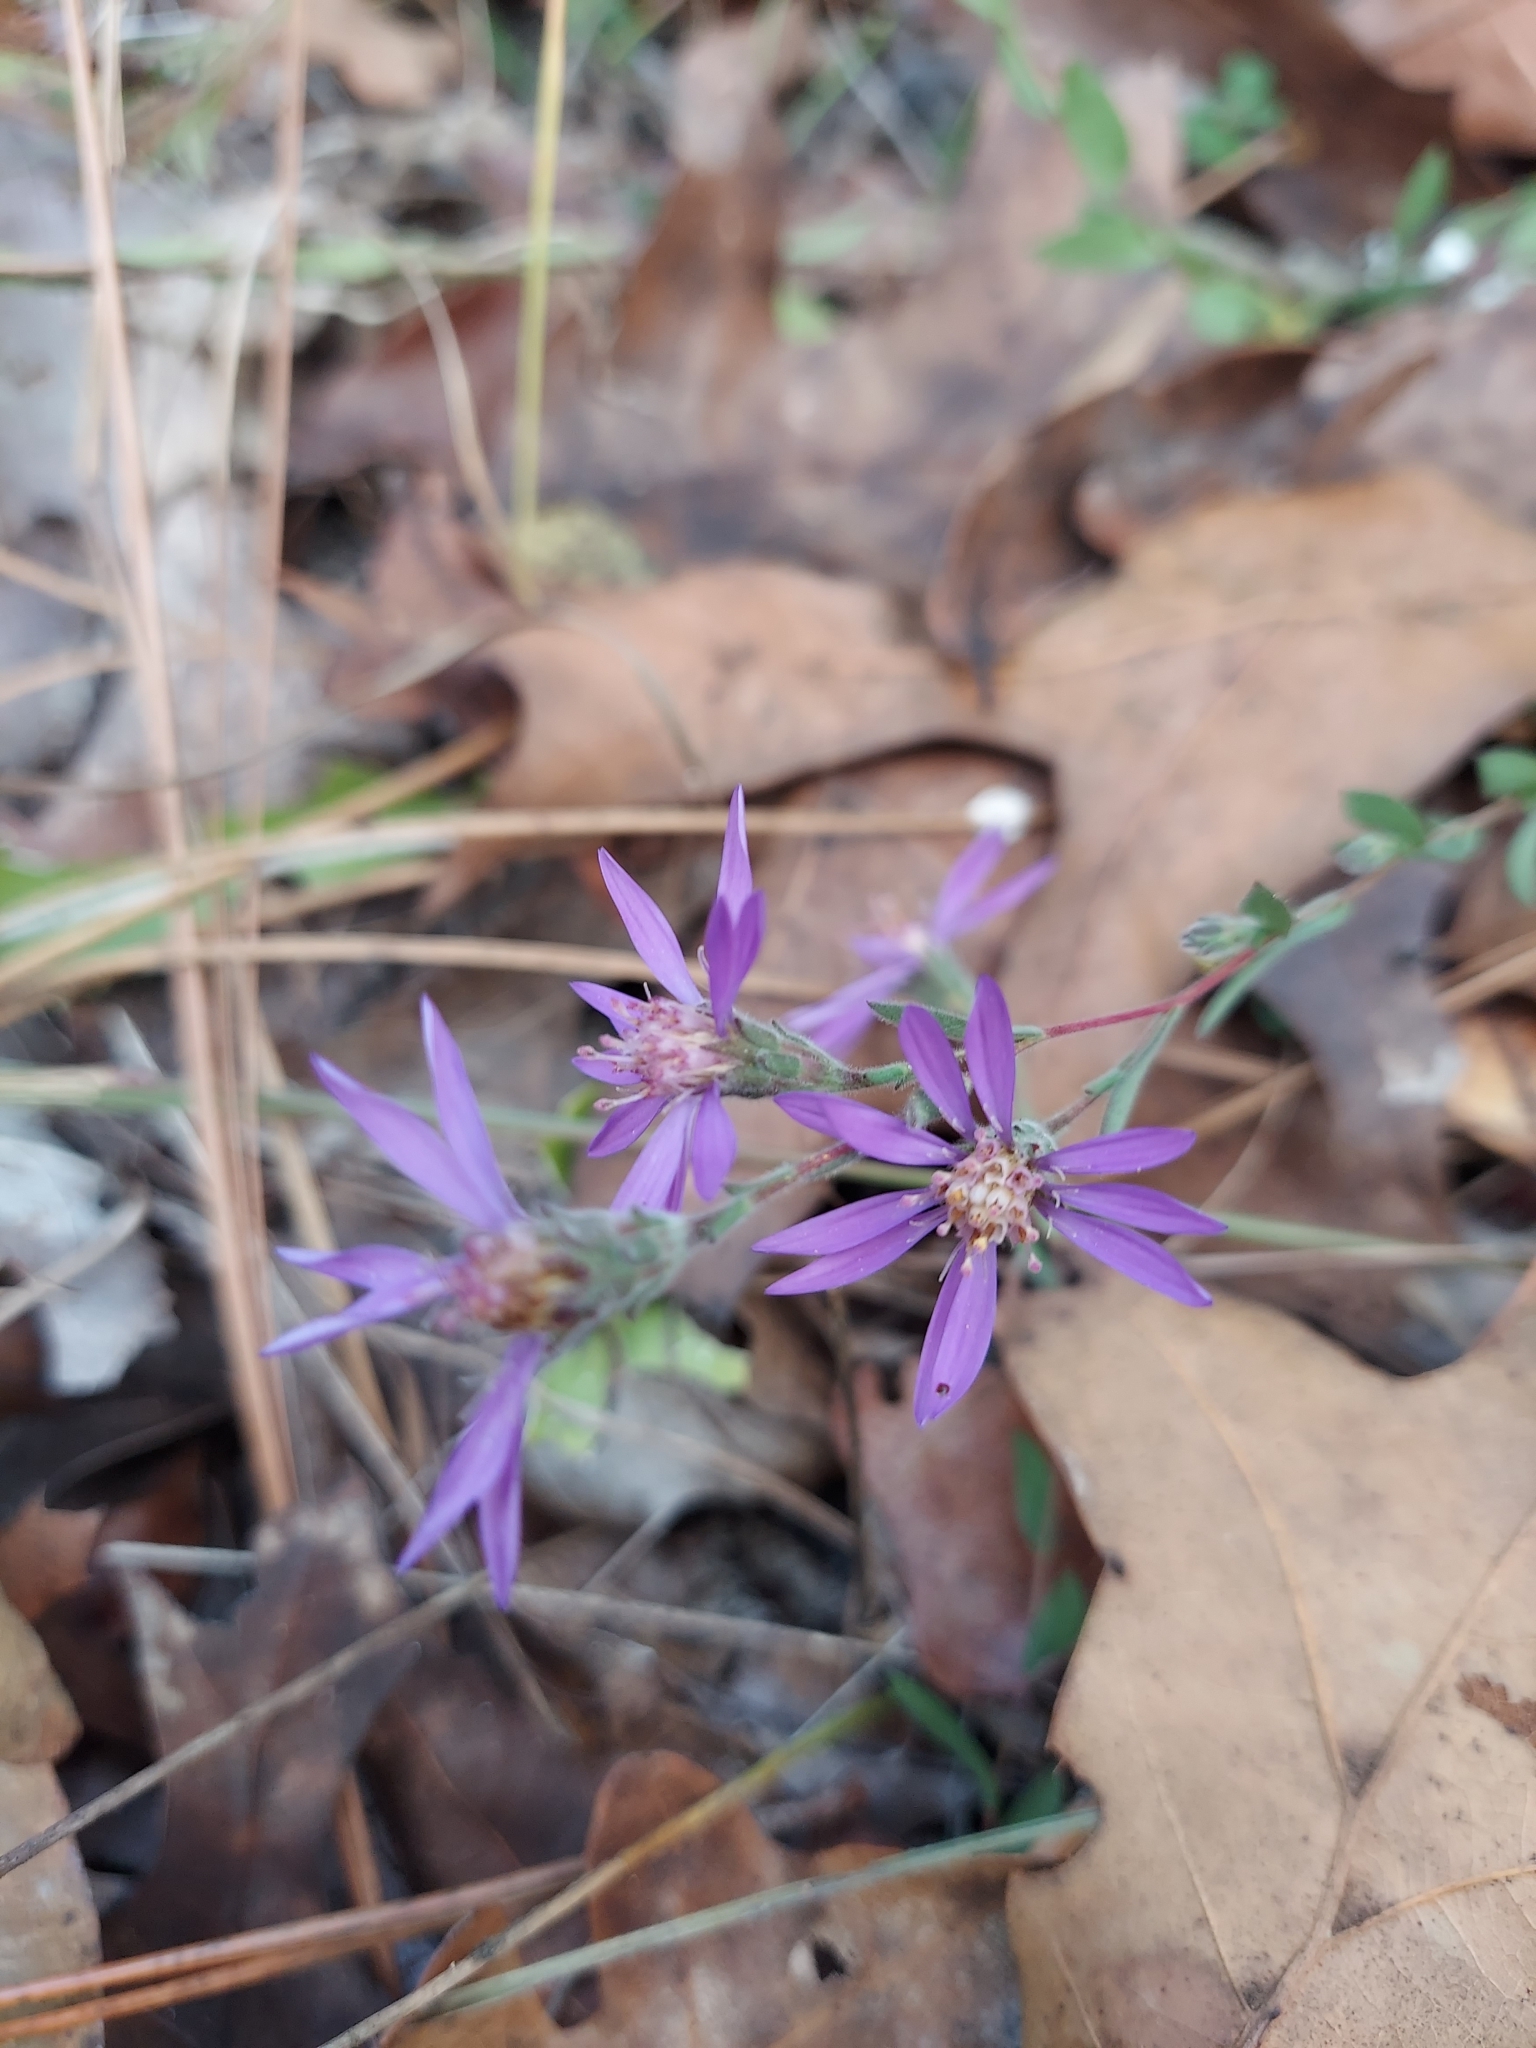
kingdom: Plantae
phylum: Tracheophyta
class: Magnoliopsida
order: Asterales
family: Asteraceae
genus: Symphyotrichum
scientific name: Symphyotrichum concolor
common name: Eastern silver aster
